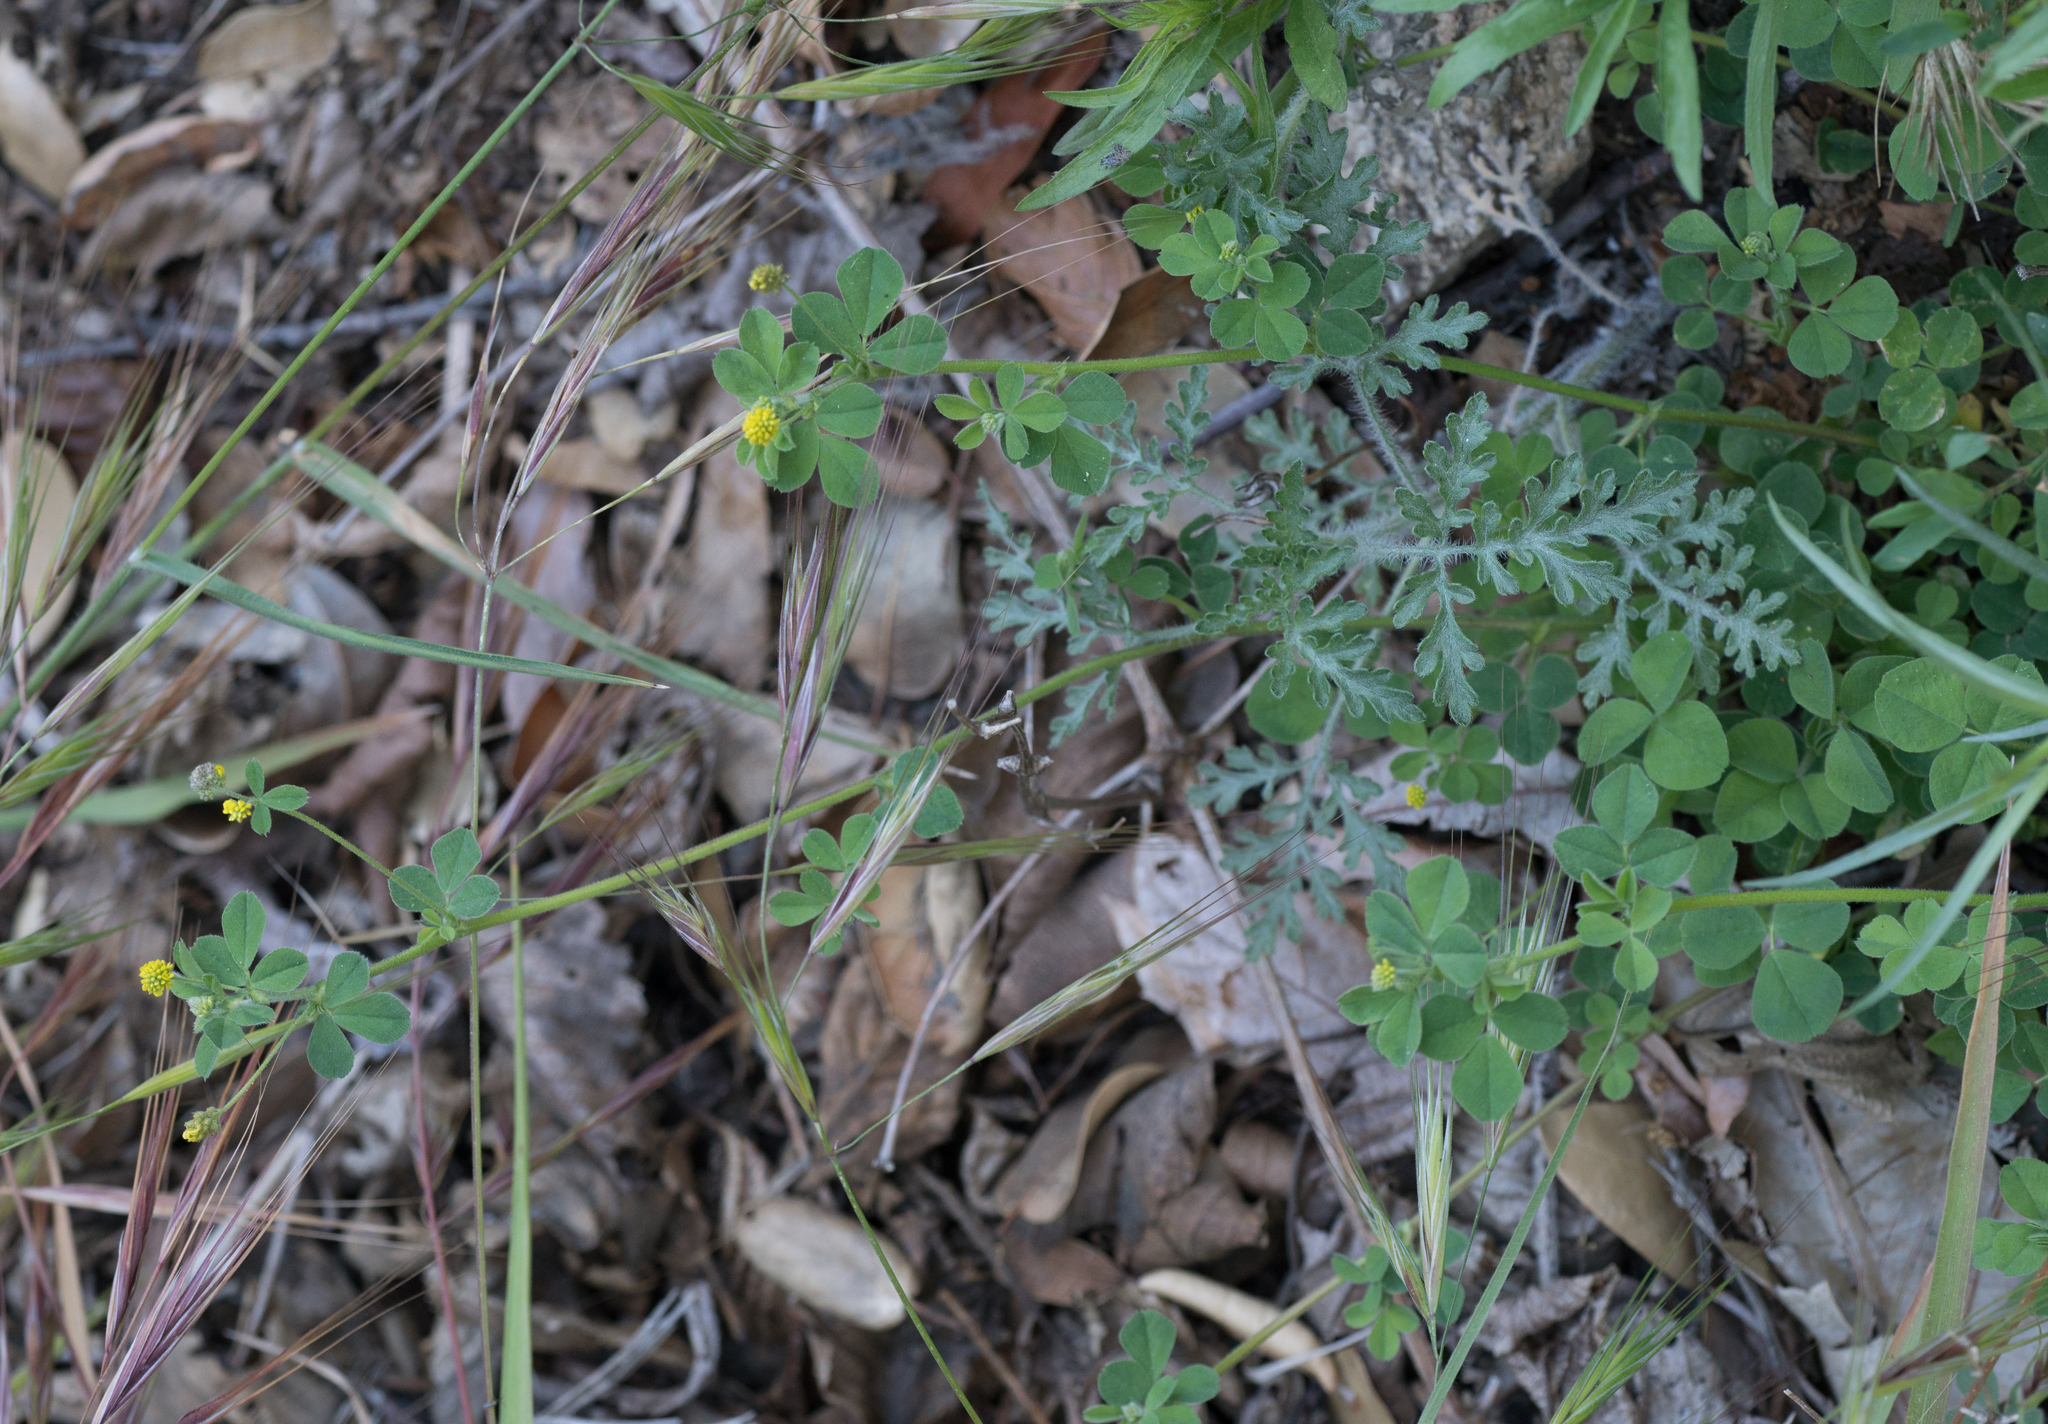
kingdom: Plantae
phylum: Tracheophyta
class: Magnoliopsida
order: Fabales
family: Fabaceae
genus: Medicago
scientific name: Medicago lupulina
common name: Black medick
